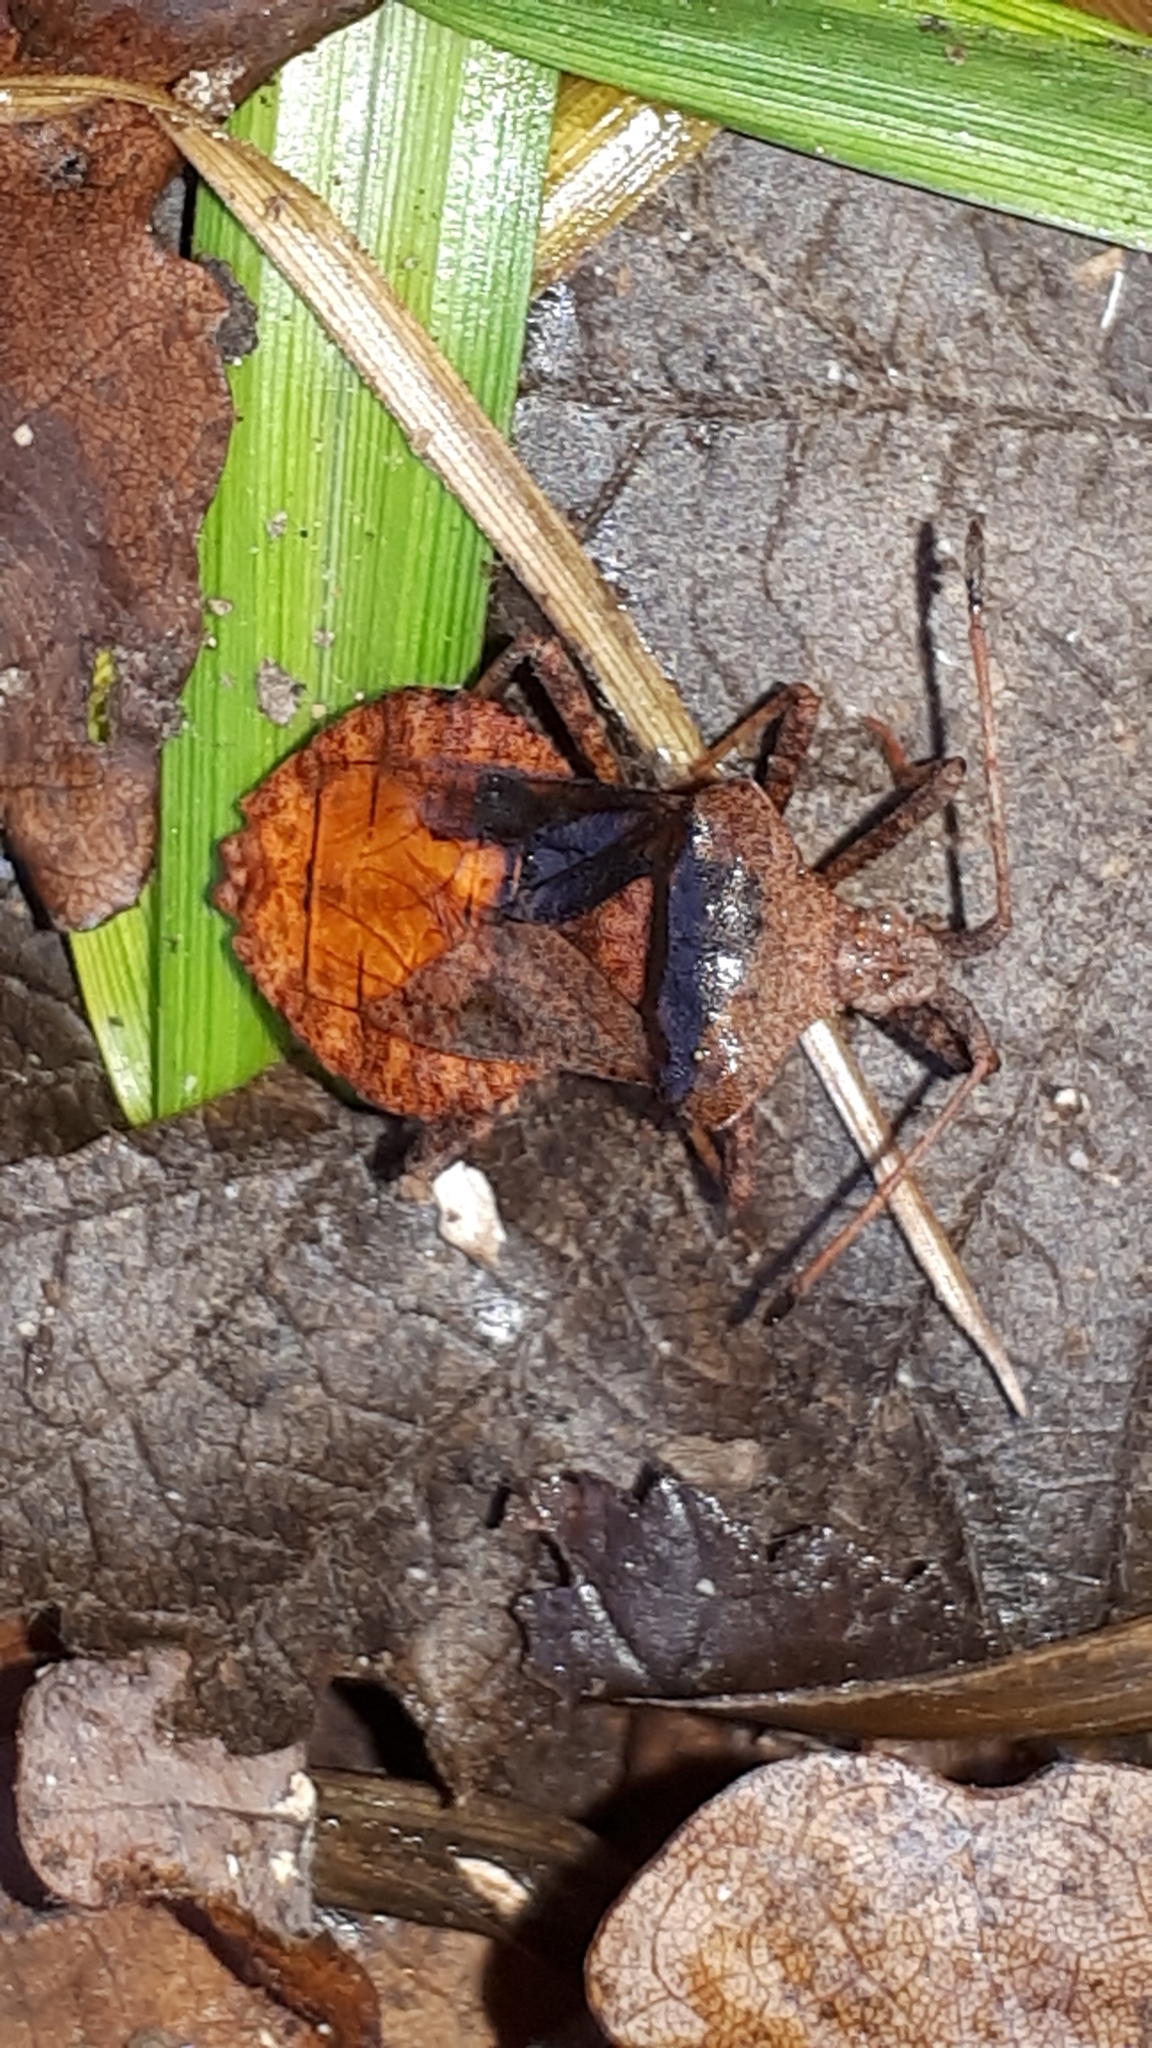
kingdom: Animalia
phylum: Arthropoda
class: Insecta
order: Hemiptera
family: Coreidae
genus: Coreus
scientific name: Coreus marginatus
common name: Dock bug
